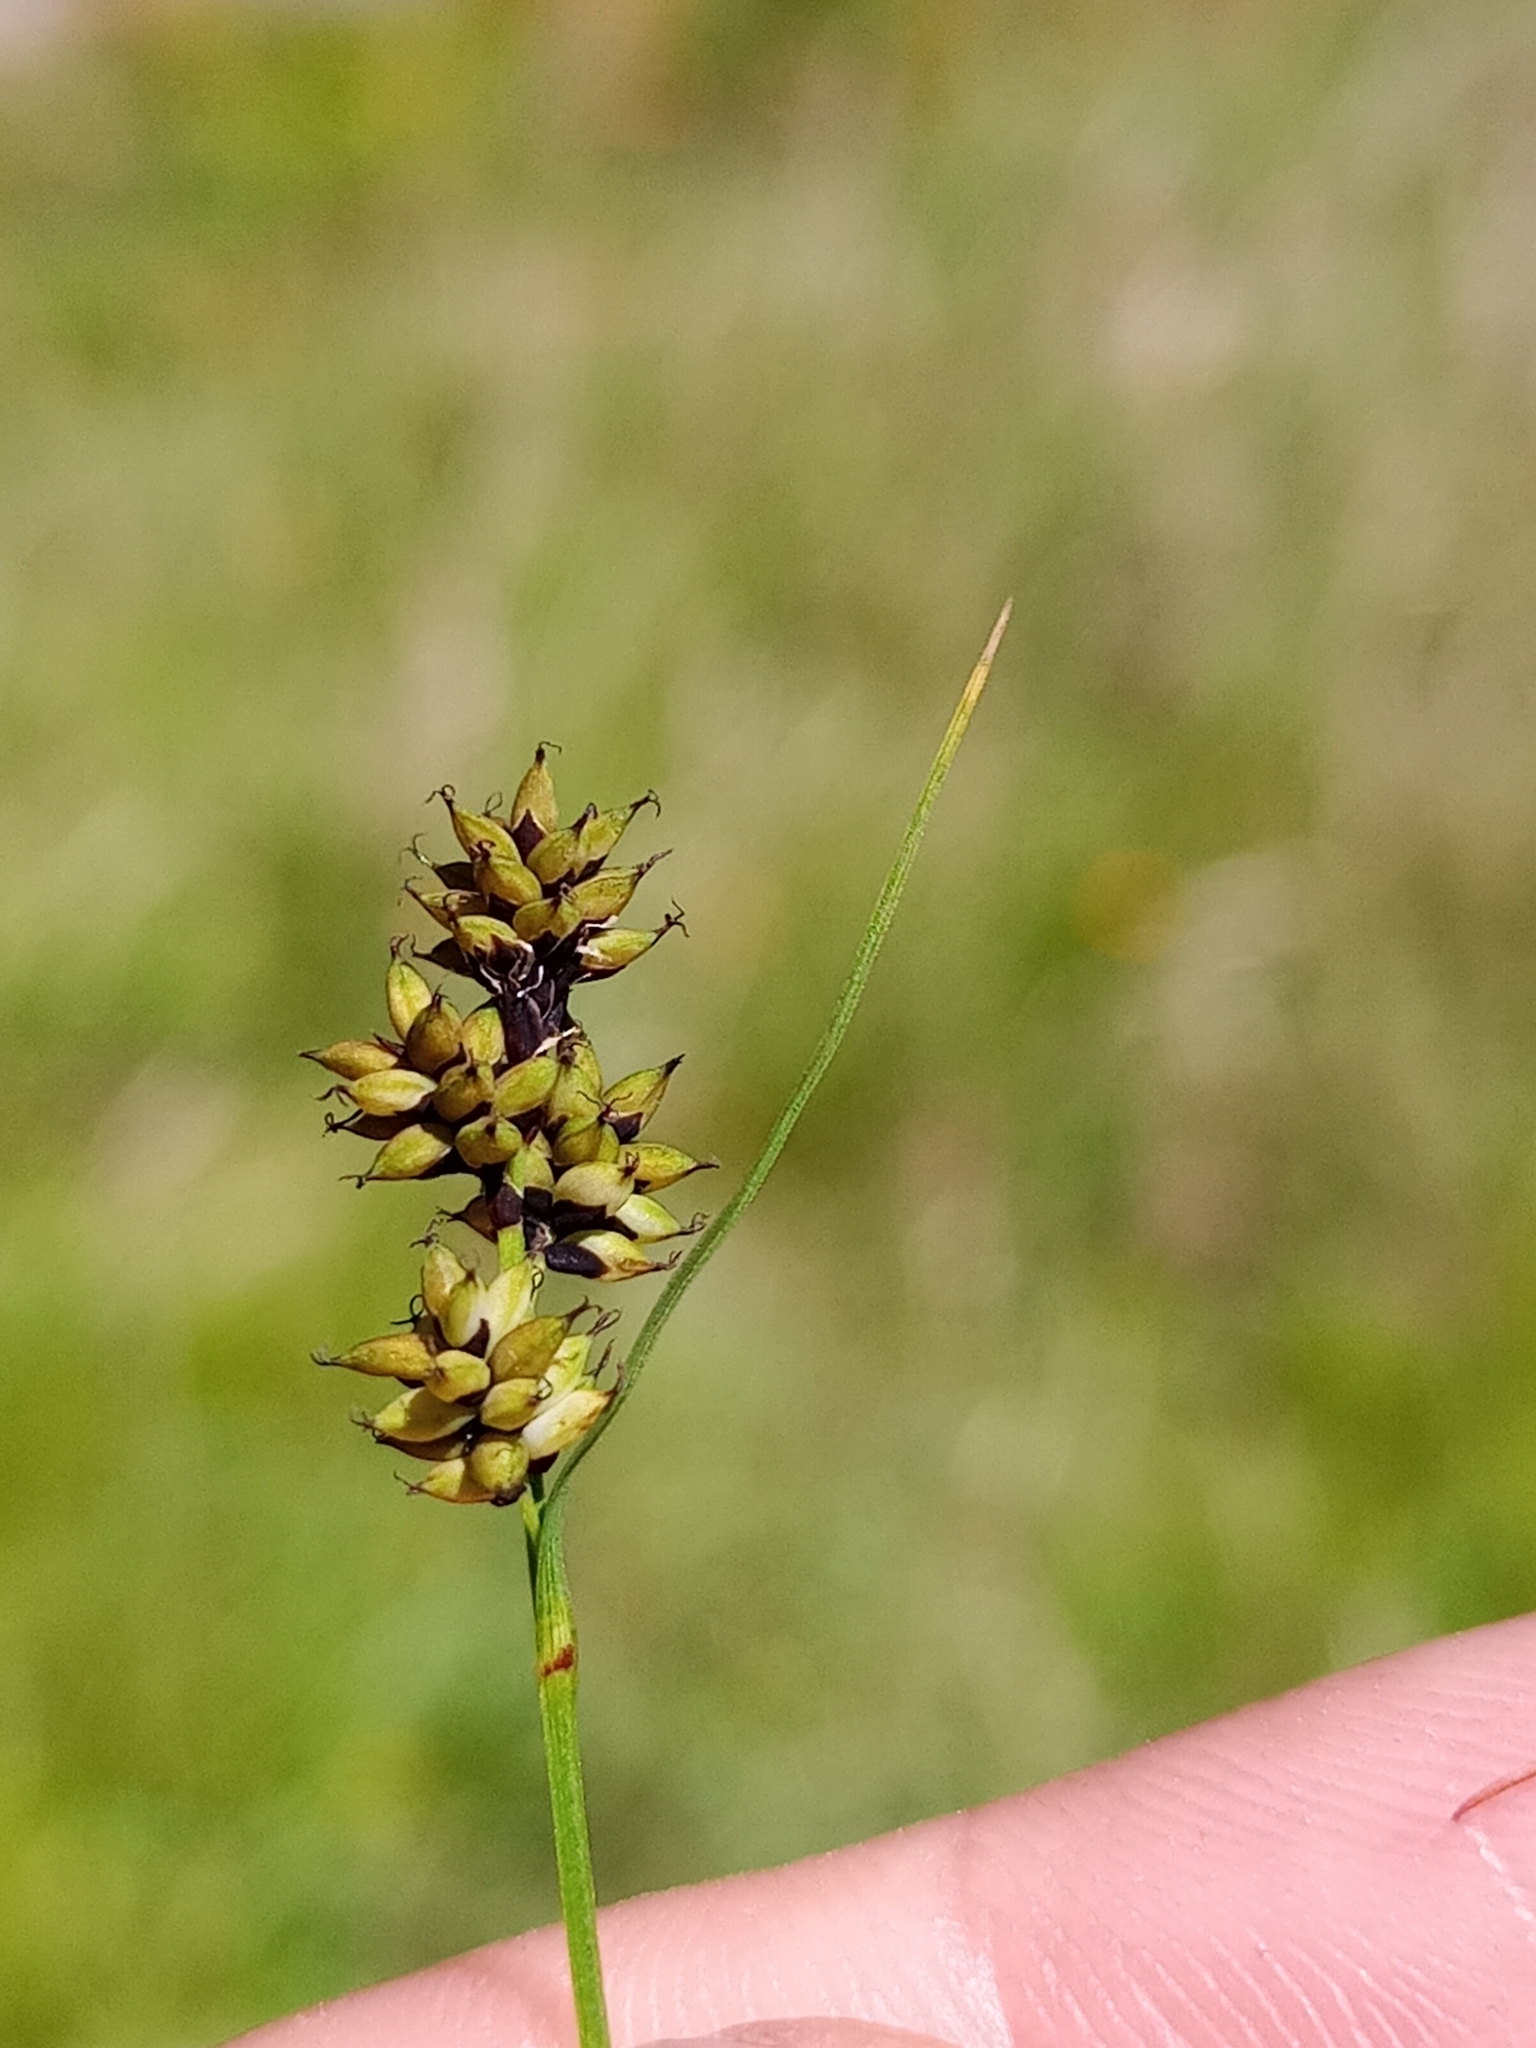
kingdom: Plantae
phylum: Tracheophyta
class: Liliopsida
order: Poales
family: Cyperaceae
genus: Carex
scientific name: Carex media
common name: Alpine sedge
